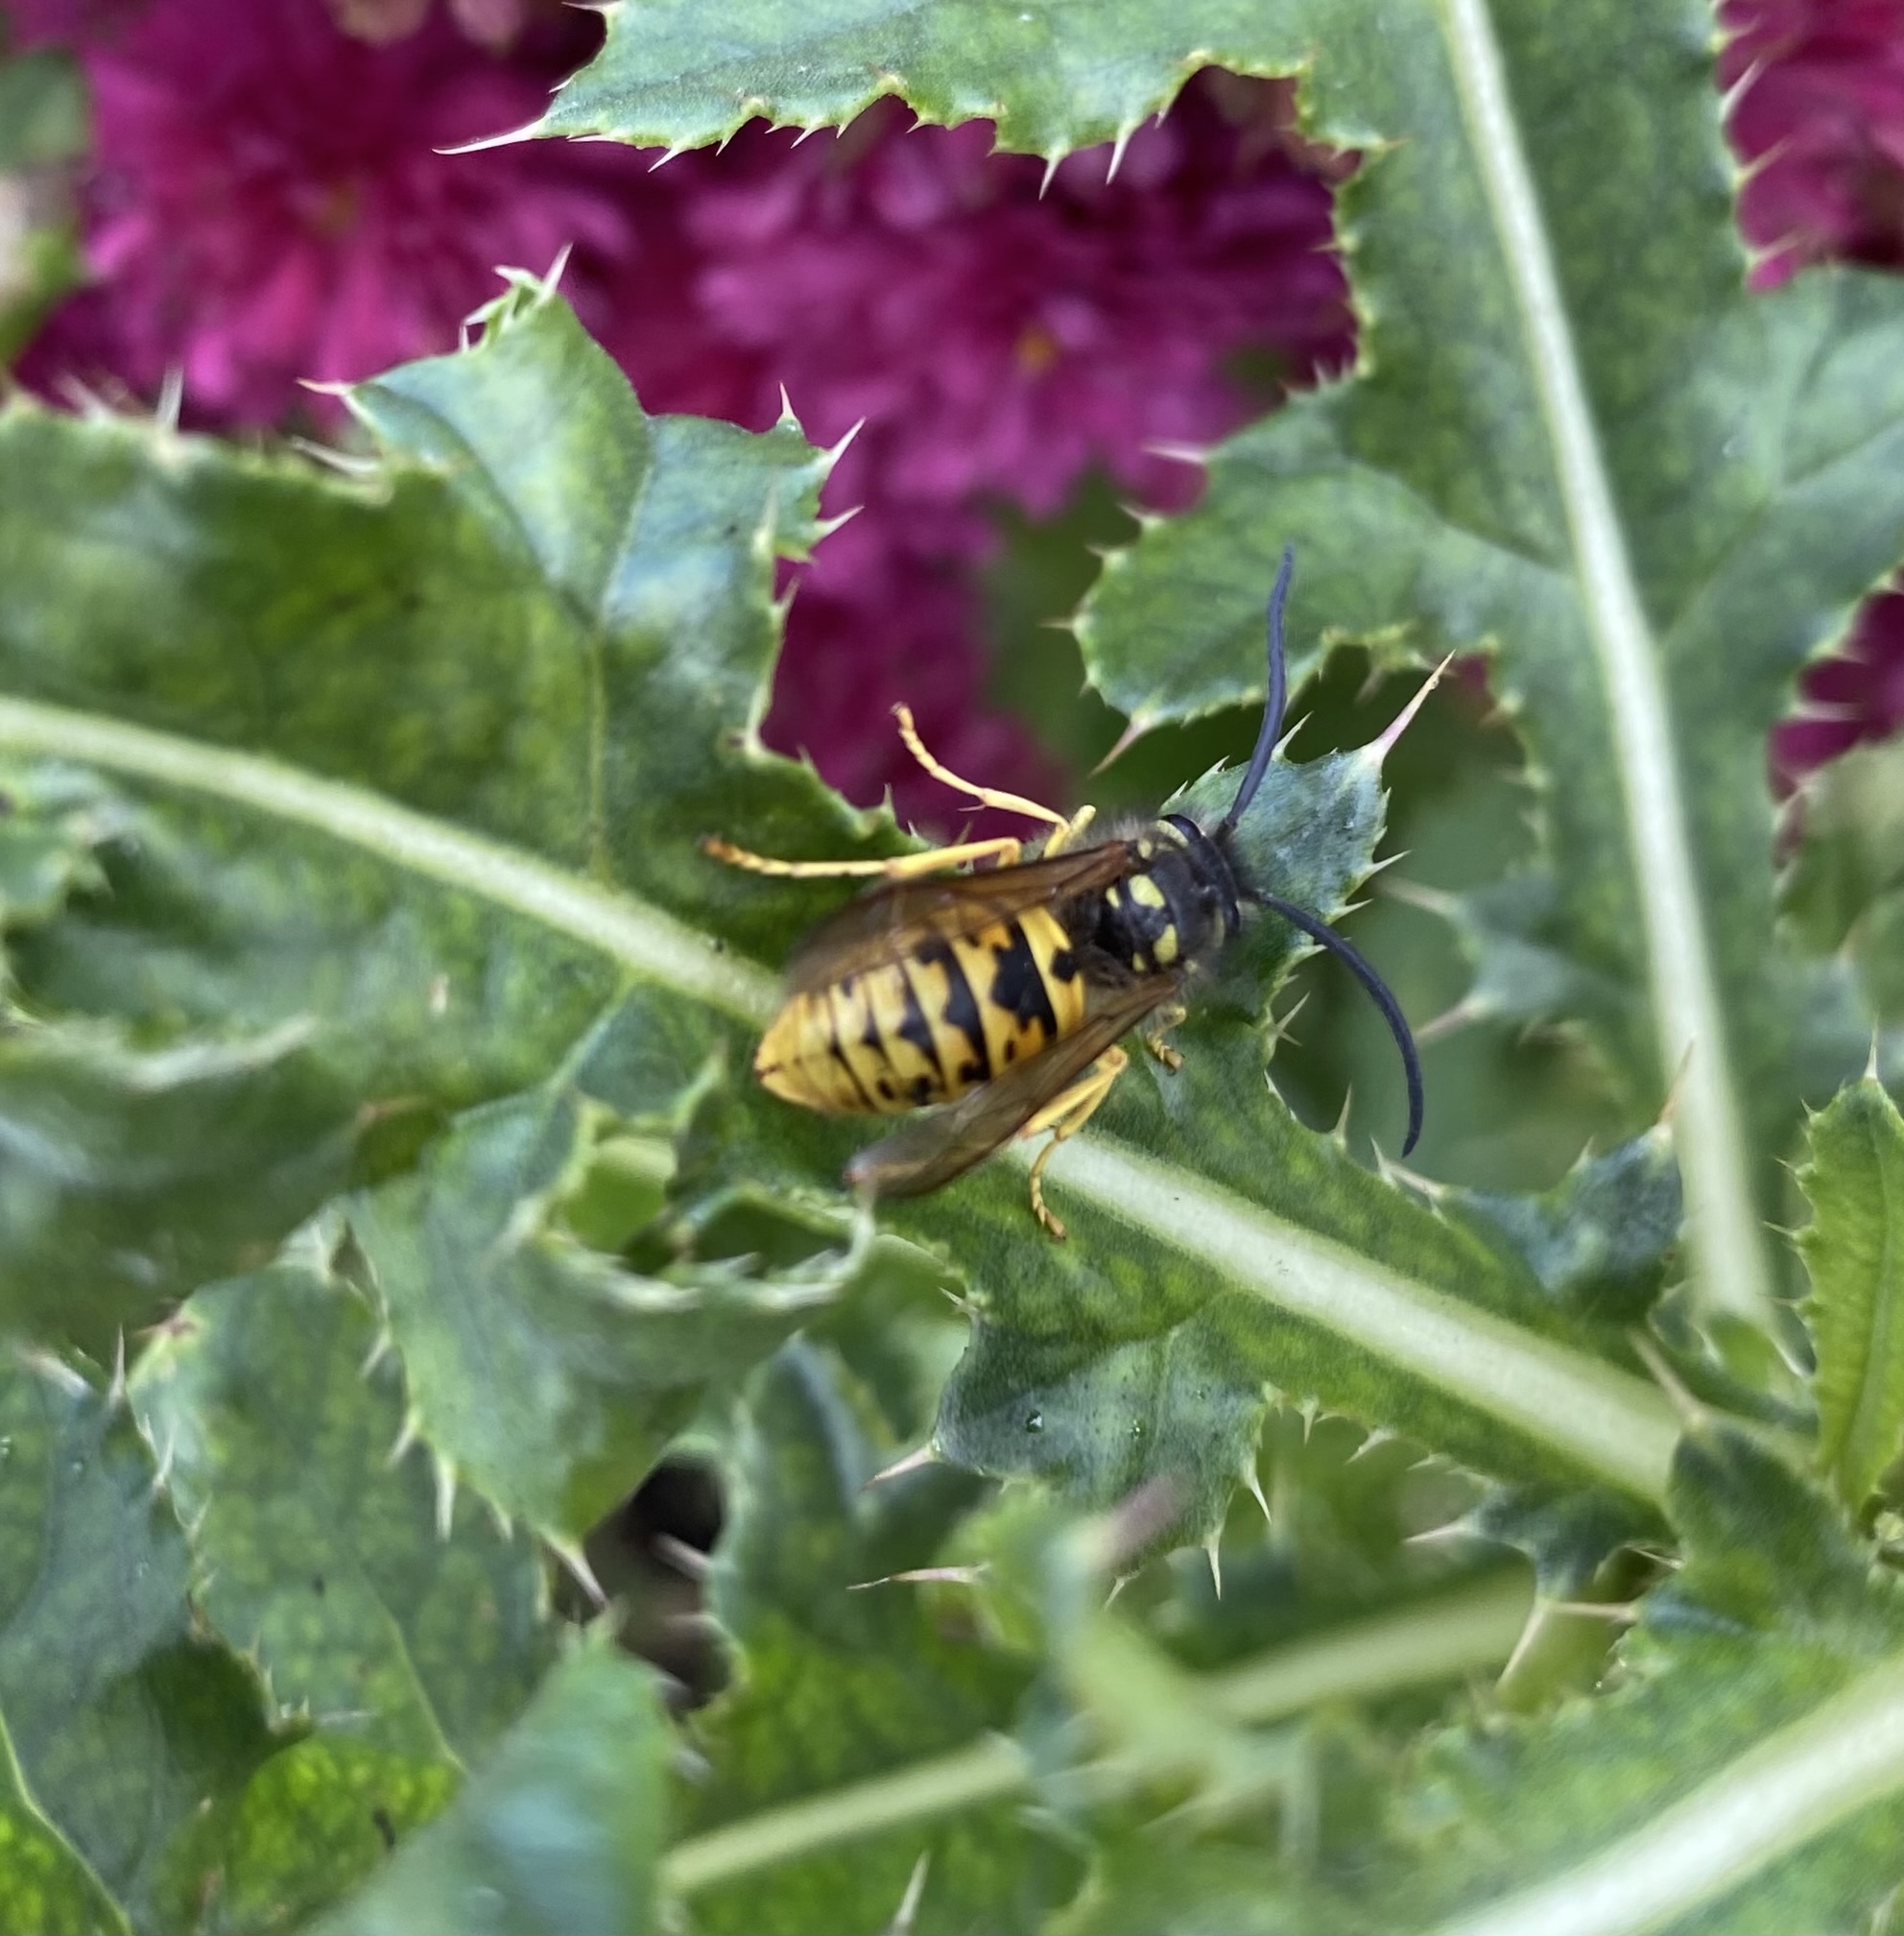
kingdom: Animalia
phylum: Arthropoda
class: Insecta
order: Hymenoptera
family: Vespidae
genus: Vespula
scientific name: Vespula germanica
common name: German wasp
